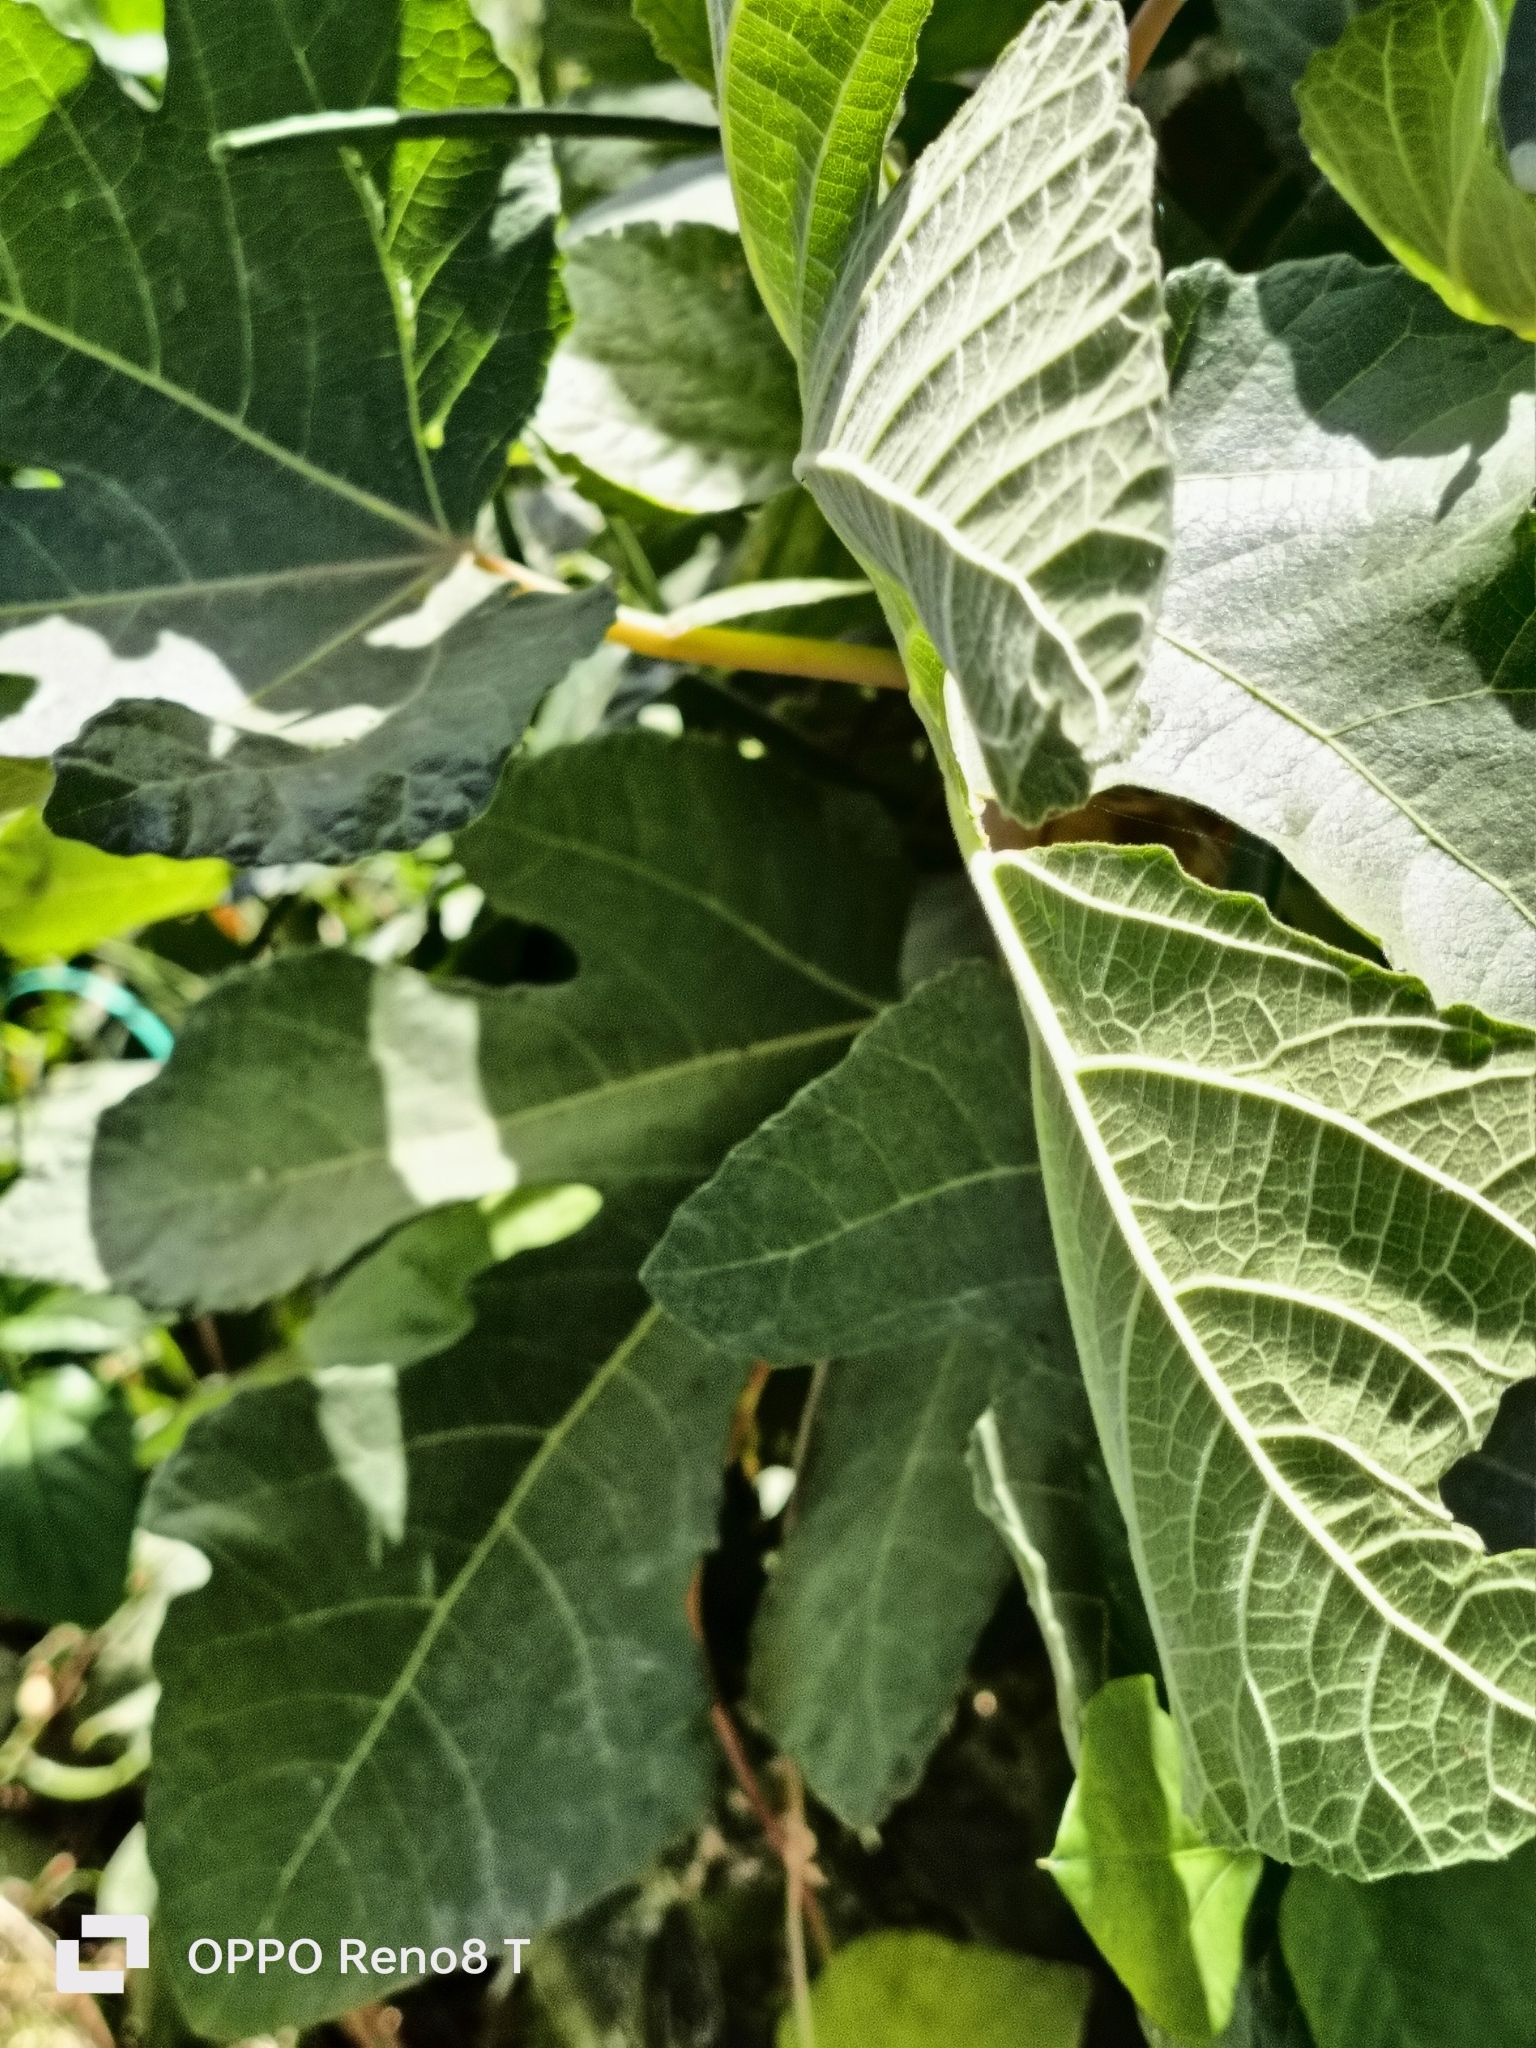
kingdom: Plantae
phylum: Tracheophyta
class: Magnoliopsida
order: Rosales
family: Moraceae
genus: Ficus
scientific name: Ficus carica
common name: Fig
